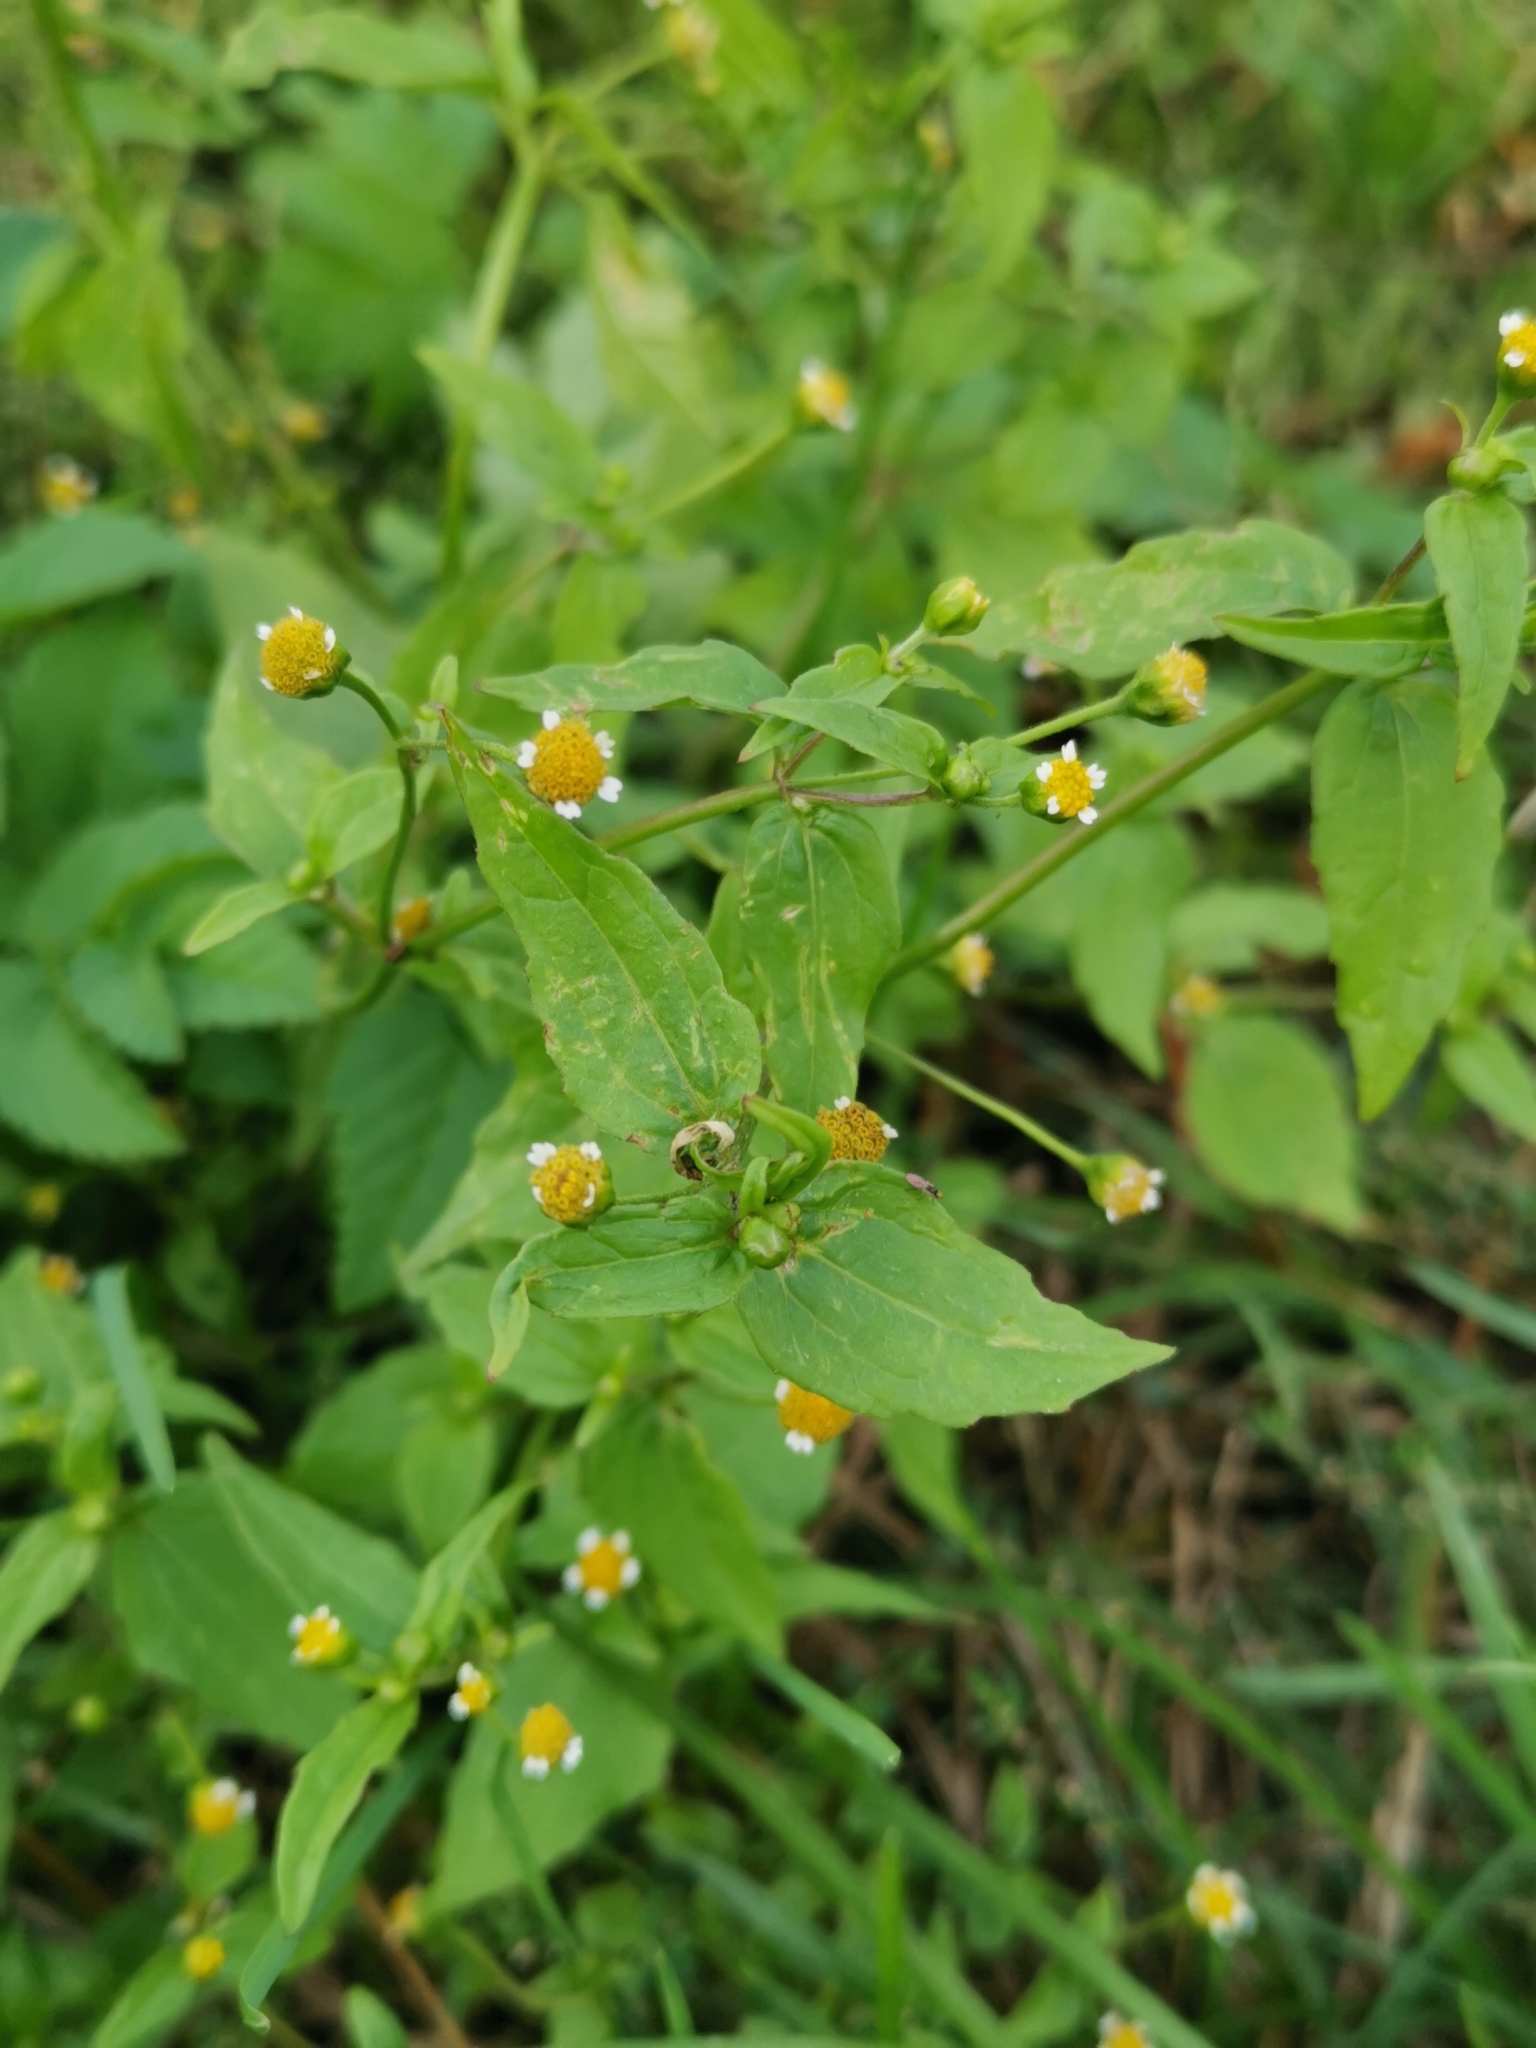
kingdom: Plantae
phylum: Tracheophyta
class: Magnoliopsida
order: Asterales
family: Asteraceae
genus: Galinsoga
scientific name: Galinsoga parviflora
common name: Gallant soldier
